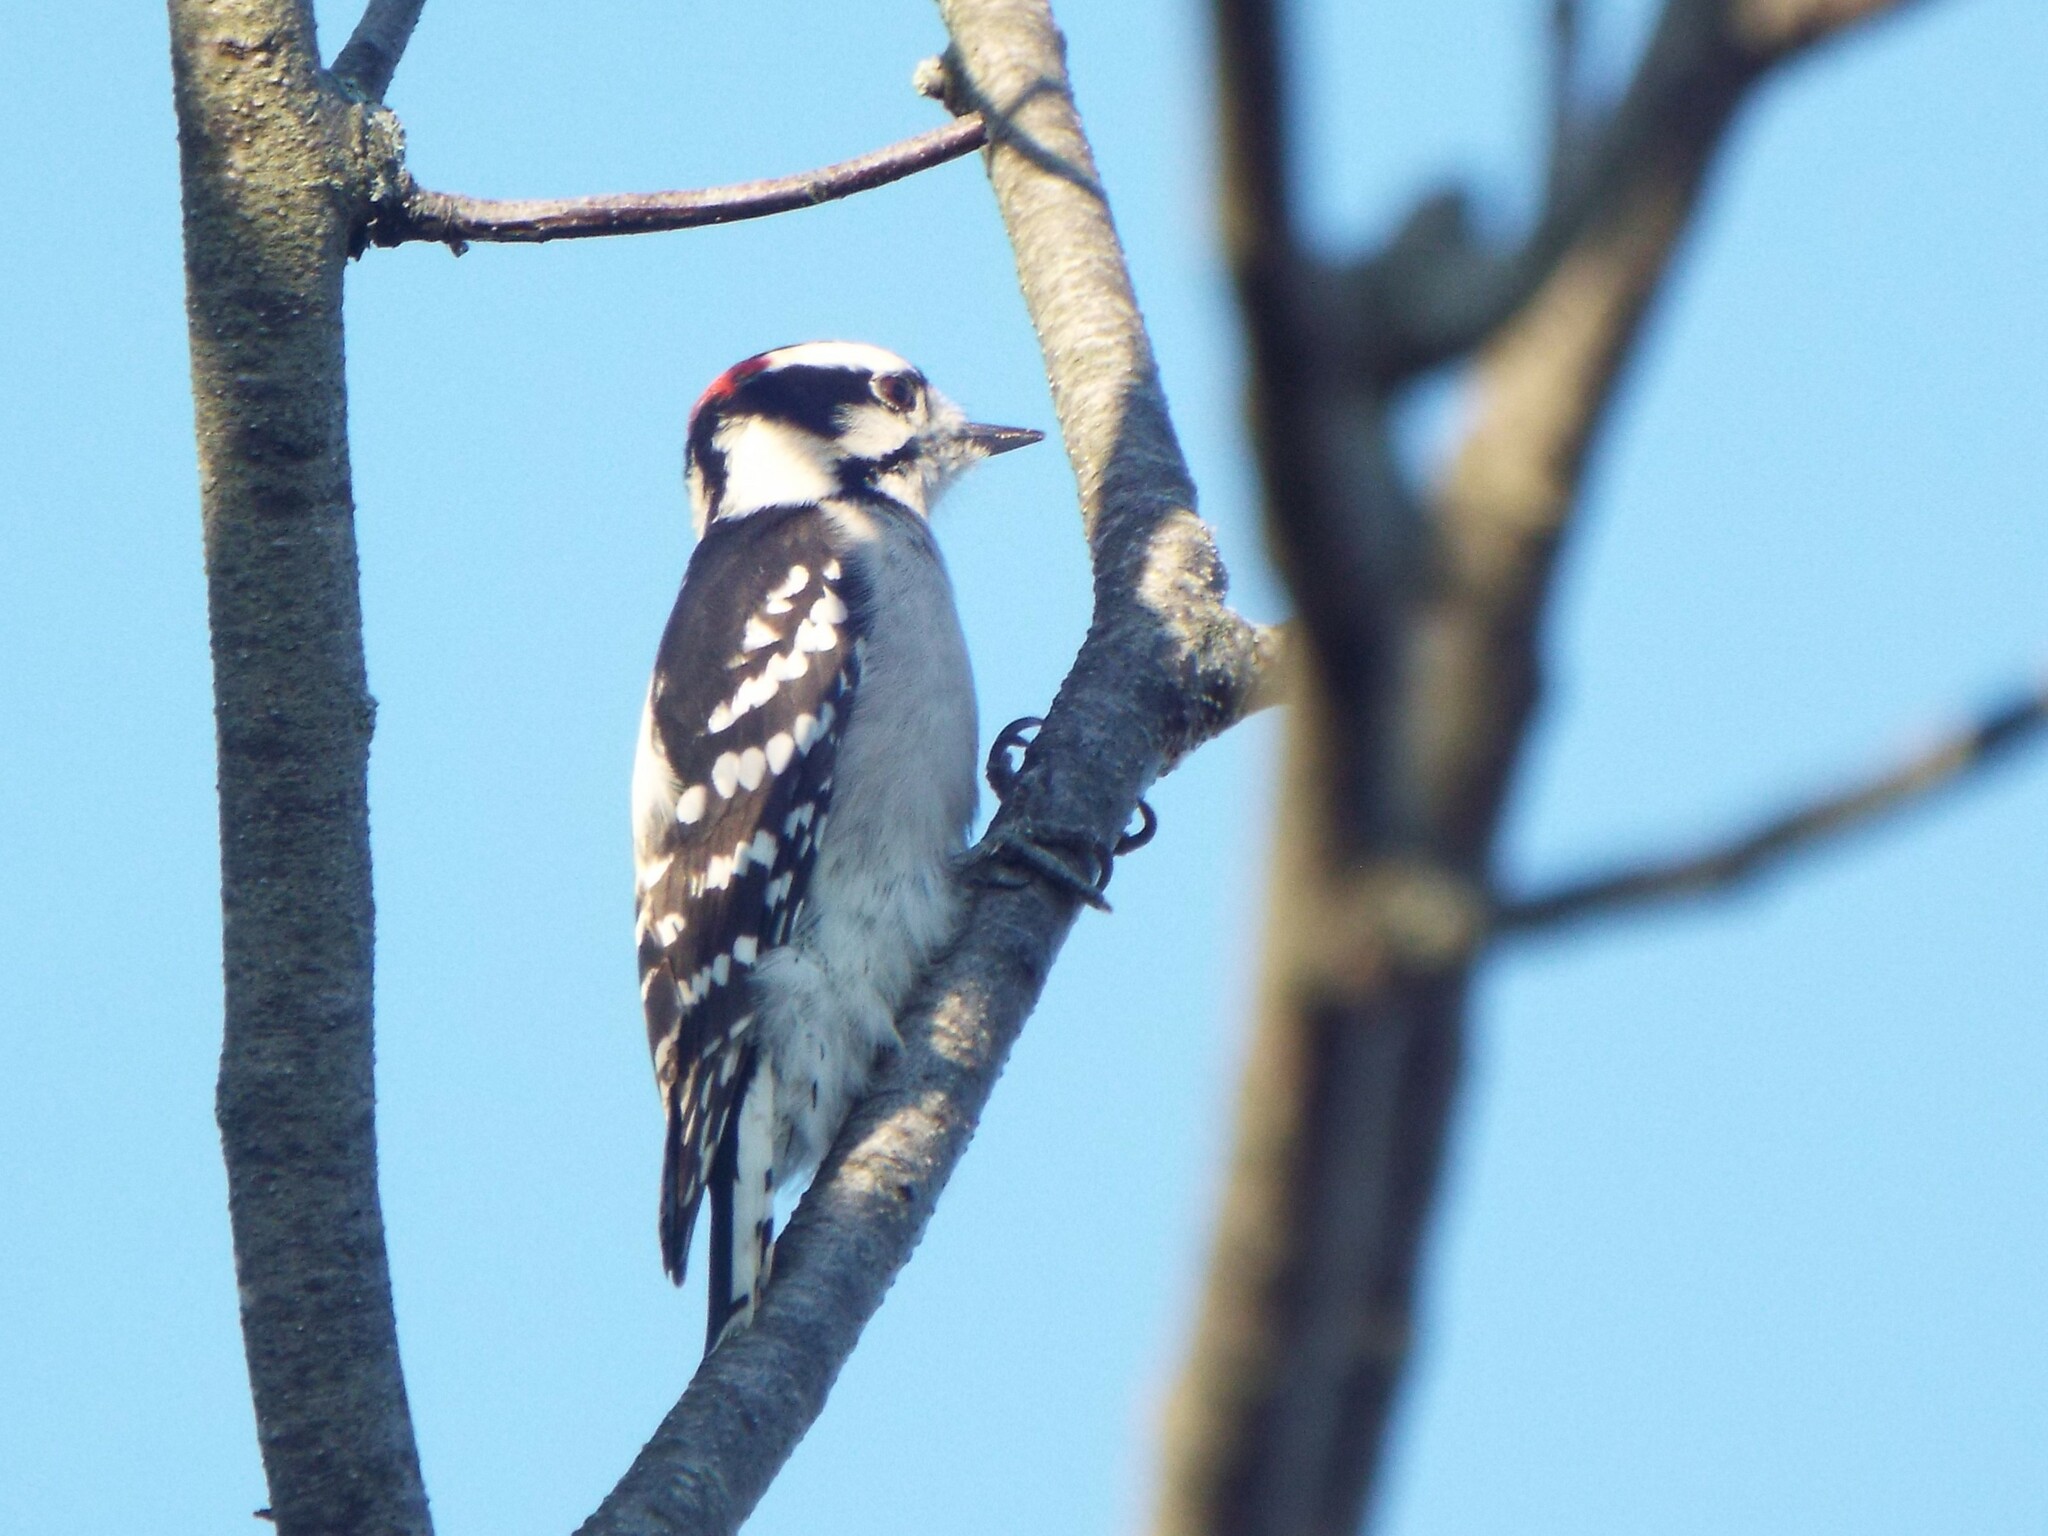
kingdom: Animalia
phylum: Chordata
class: Aves
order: Piciformes
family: Picidae
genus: Dryobates
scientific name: Dryobates pubescens
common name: Downy woodpecker
